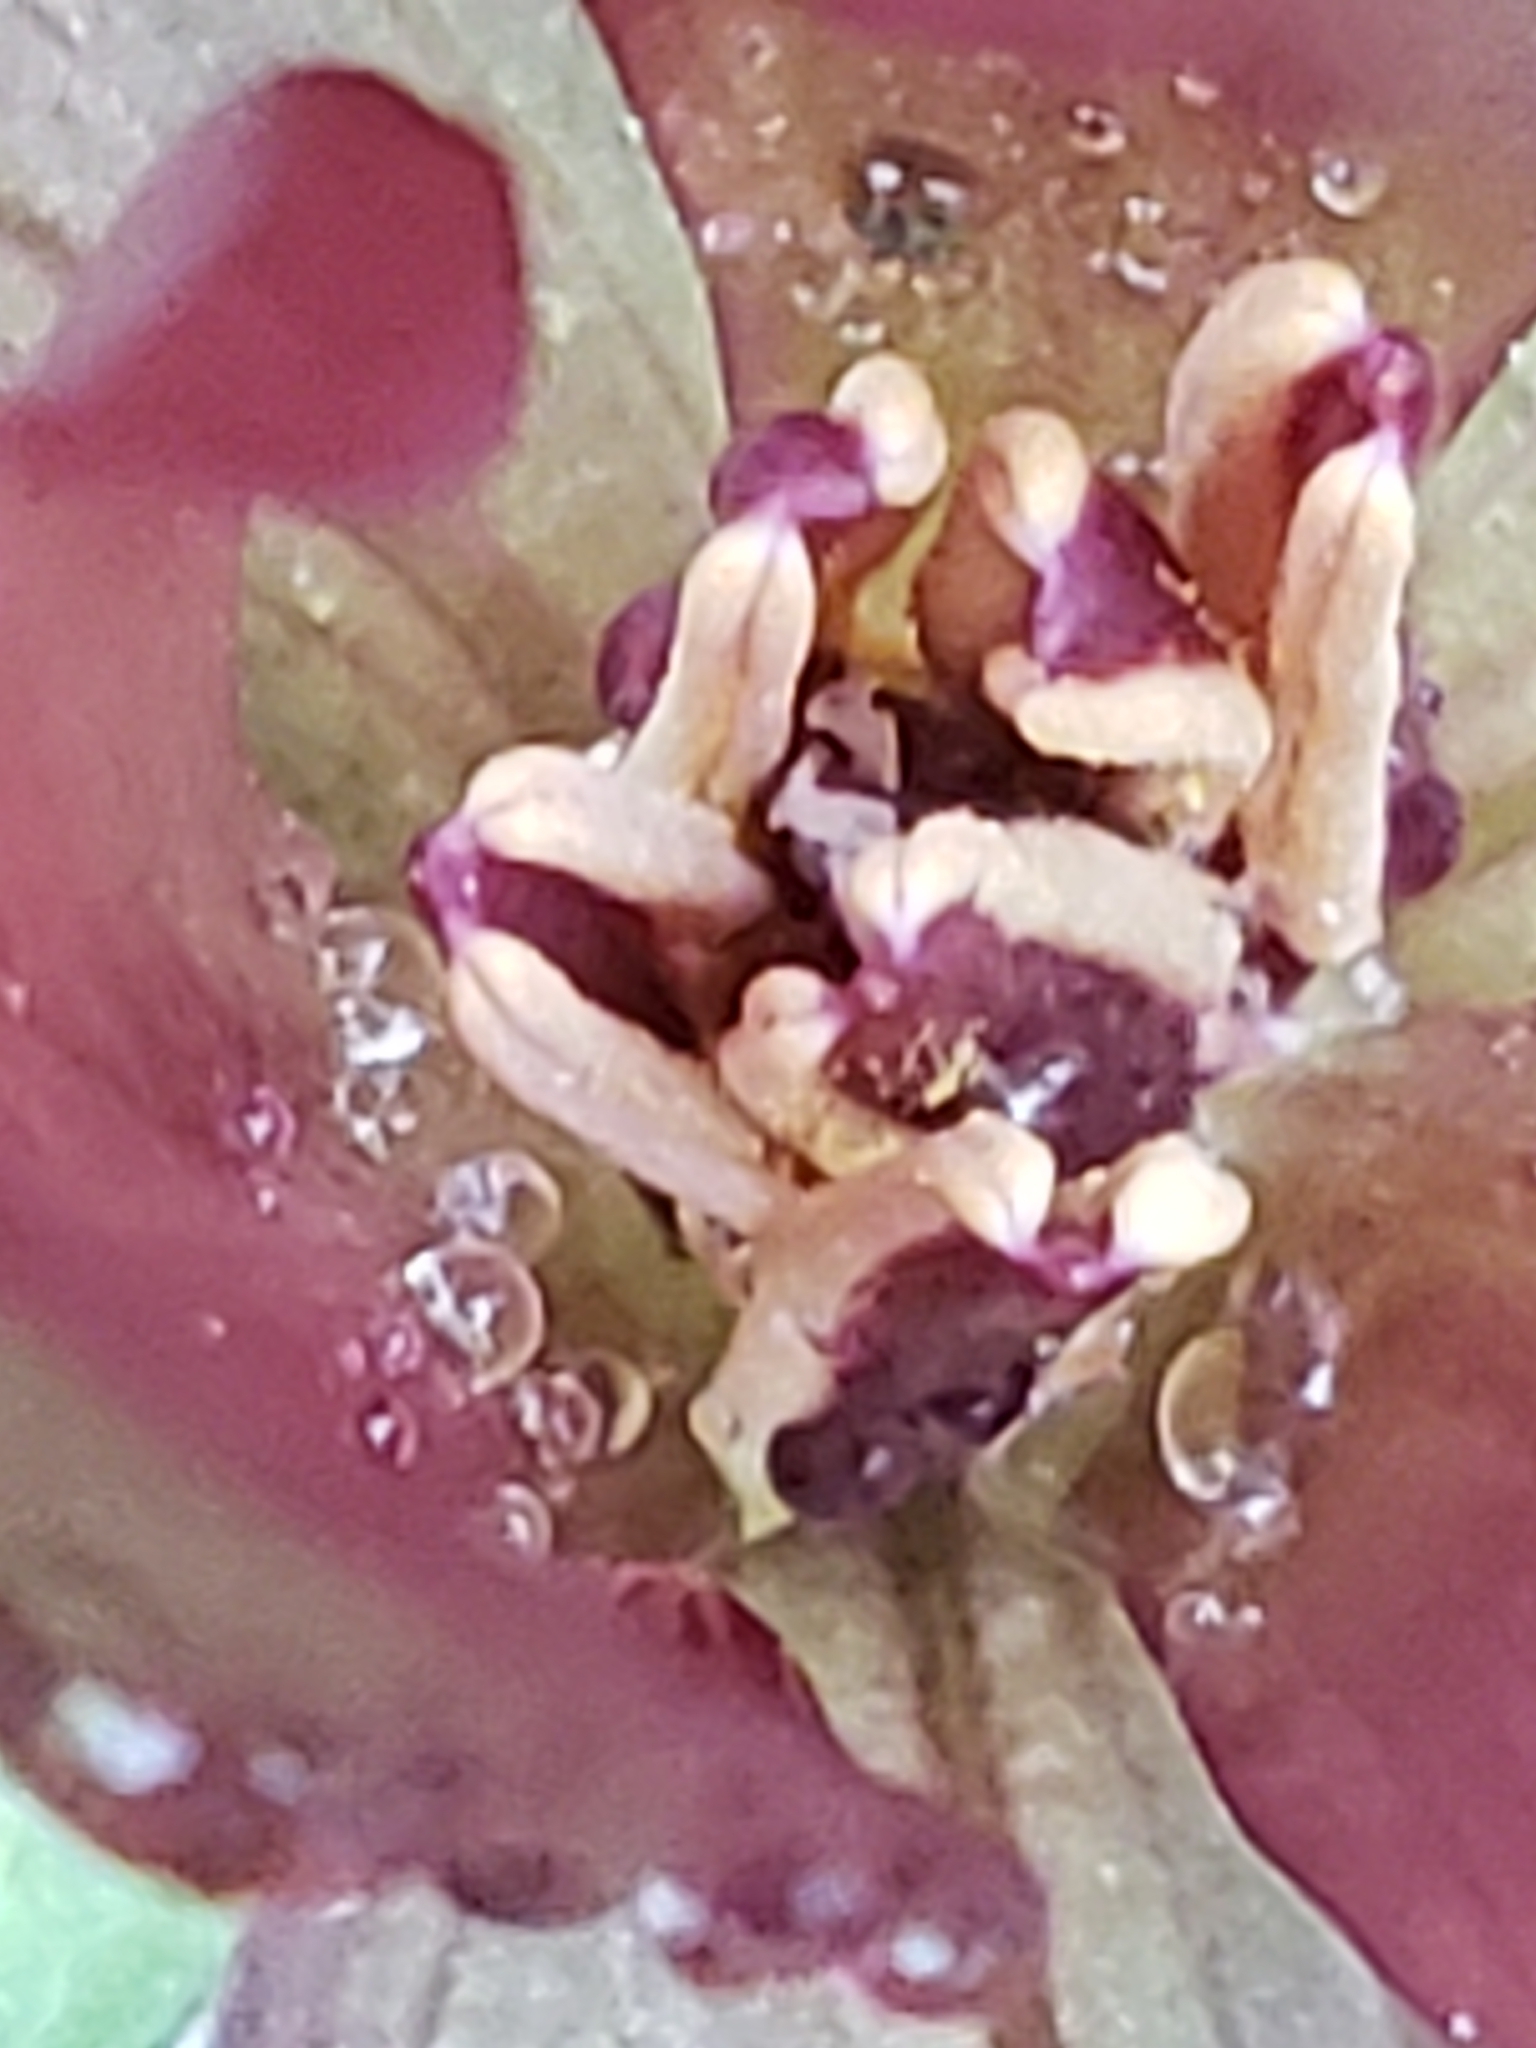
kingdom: Plantae
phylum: Tracheophyta
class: Liliopsida
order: Liliales
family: Melanthiaceae
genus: Trillium
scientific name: Trillium cuneatum
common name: Cuneate trillium
